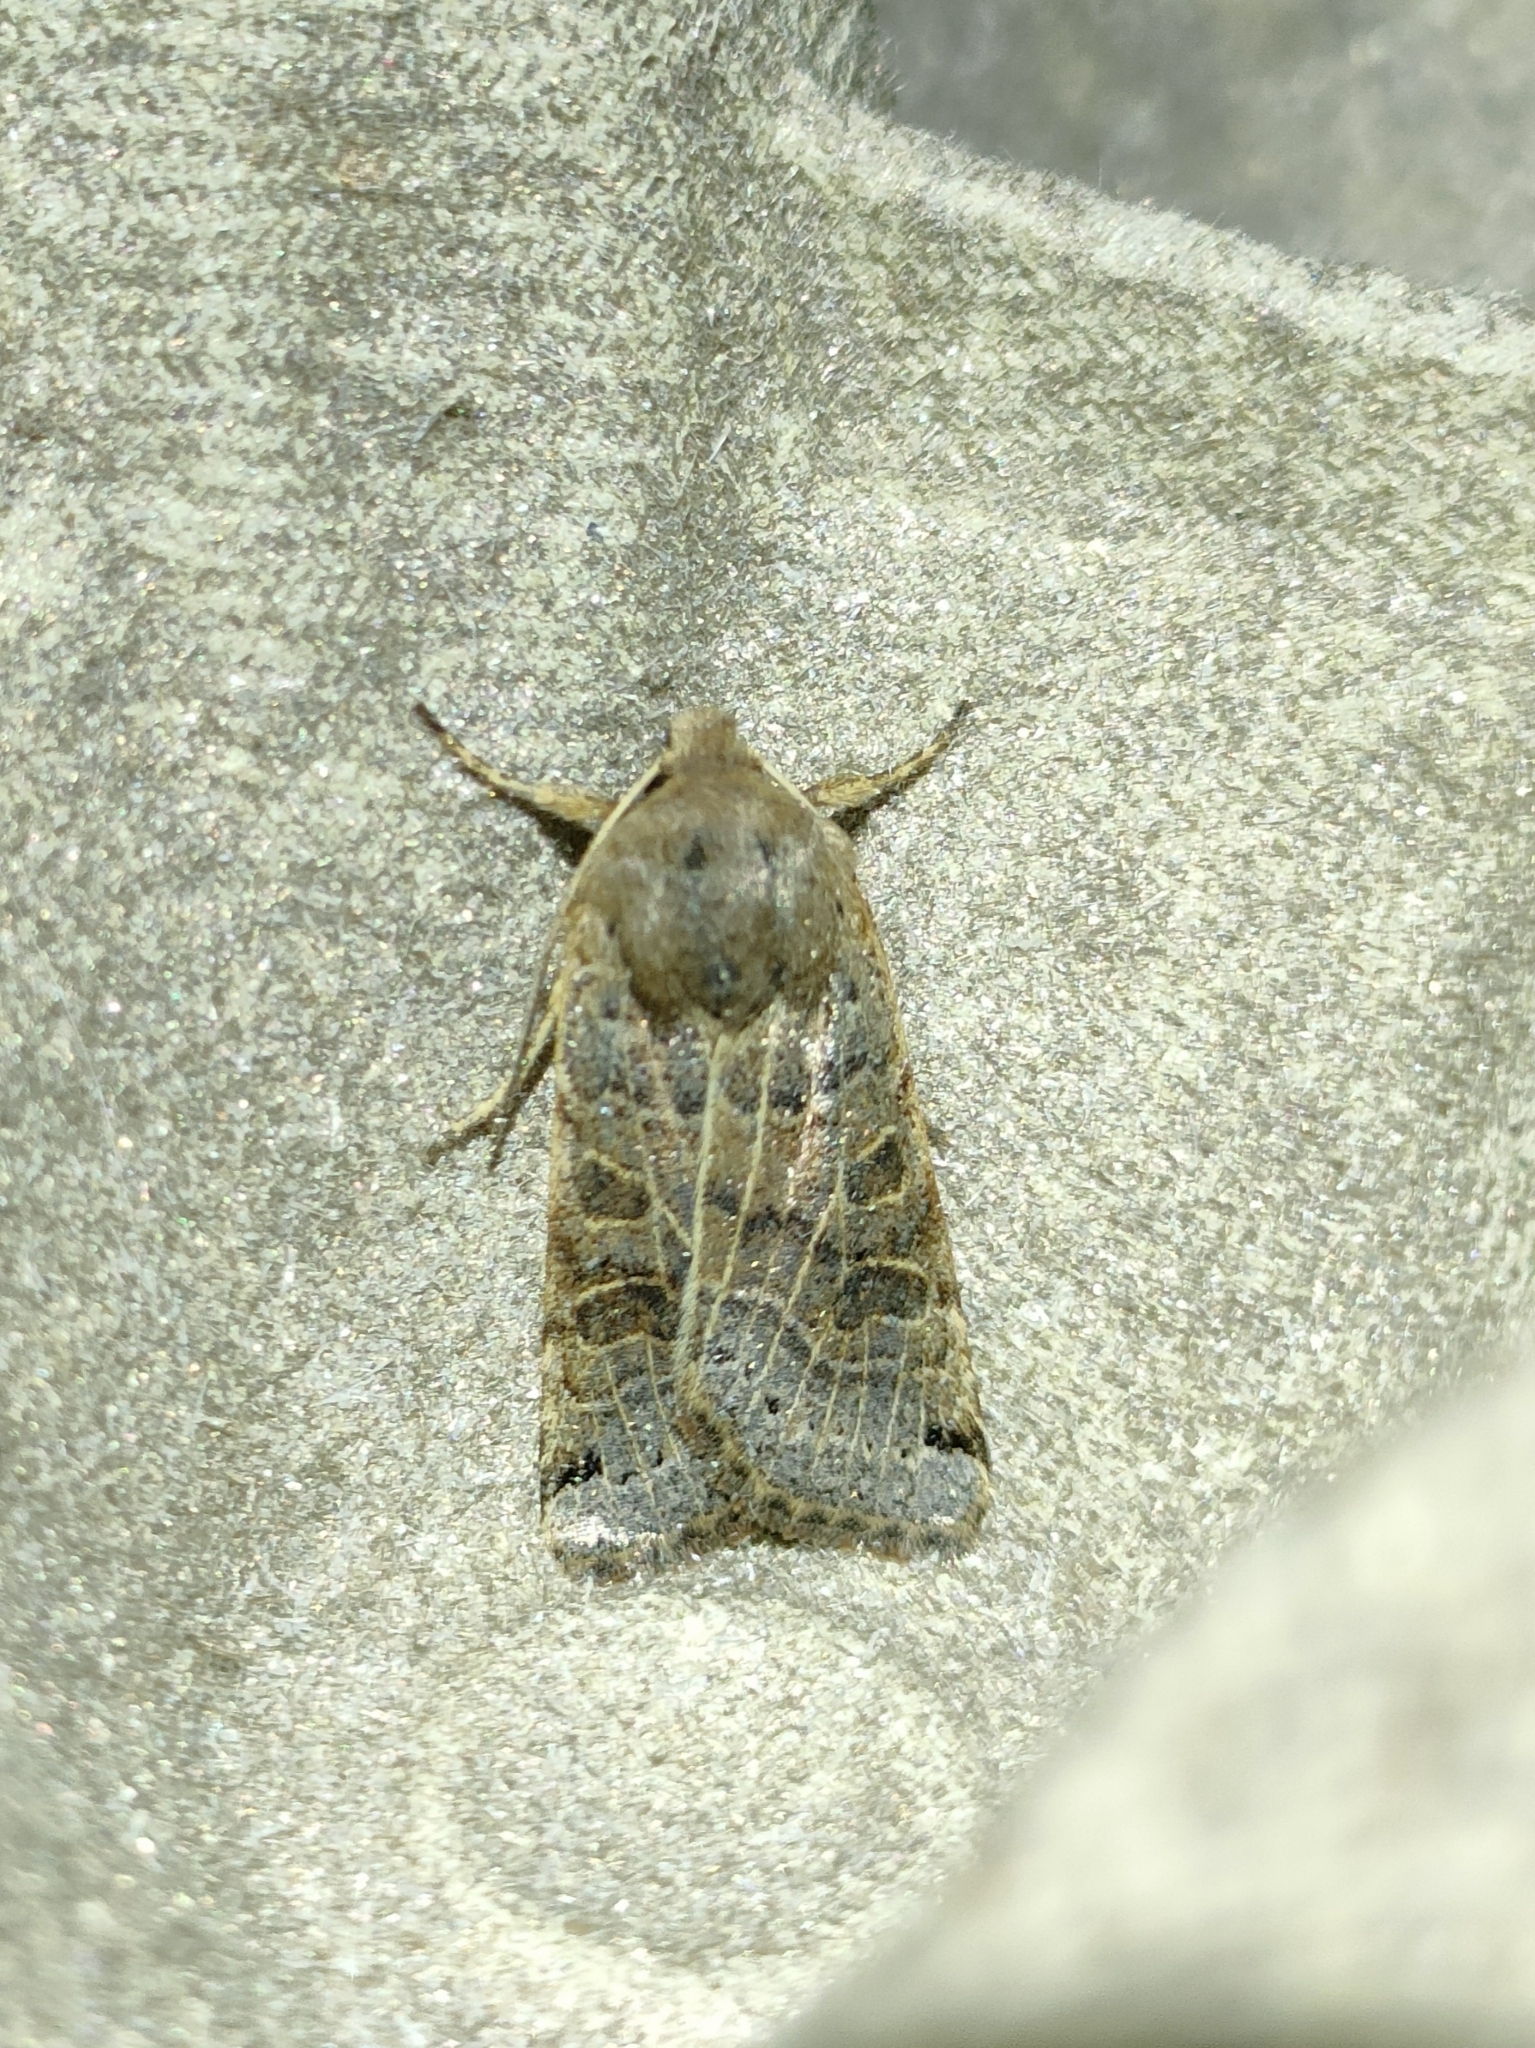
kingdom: Animalia
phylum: Arthropoda
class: Insecta
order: Lepidoptera
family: Noctuidae
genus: Agrochola
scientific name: Agrochola lunosa
